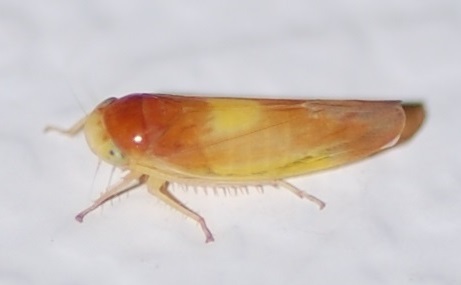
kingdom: Animalia
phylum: Arthropoda
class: Insecta
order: Hemiptera
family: Cicadellidae
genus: Colladonus
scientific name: Colladonus setaceus
